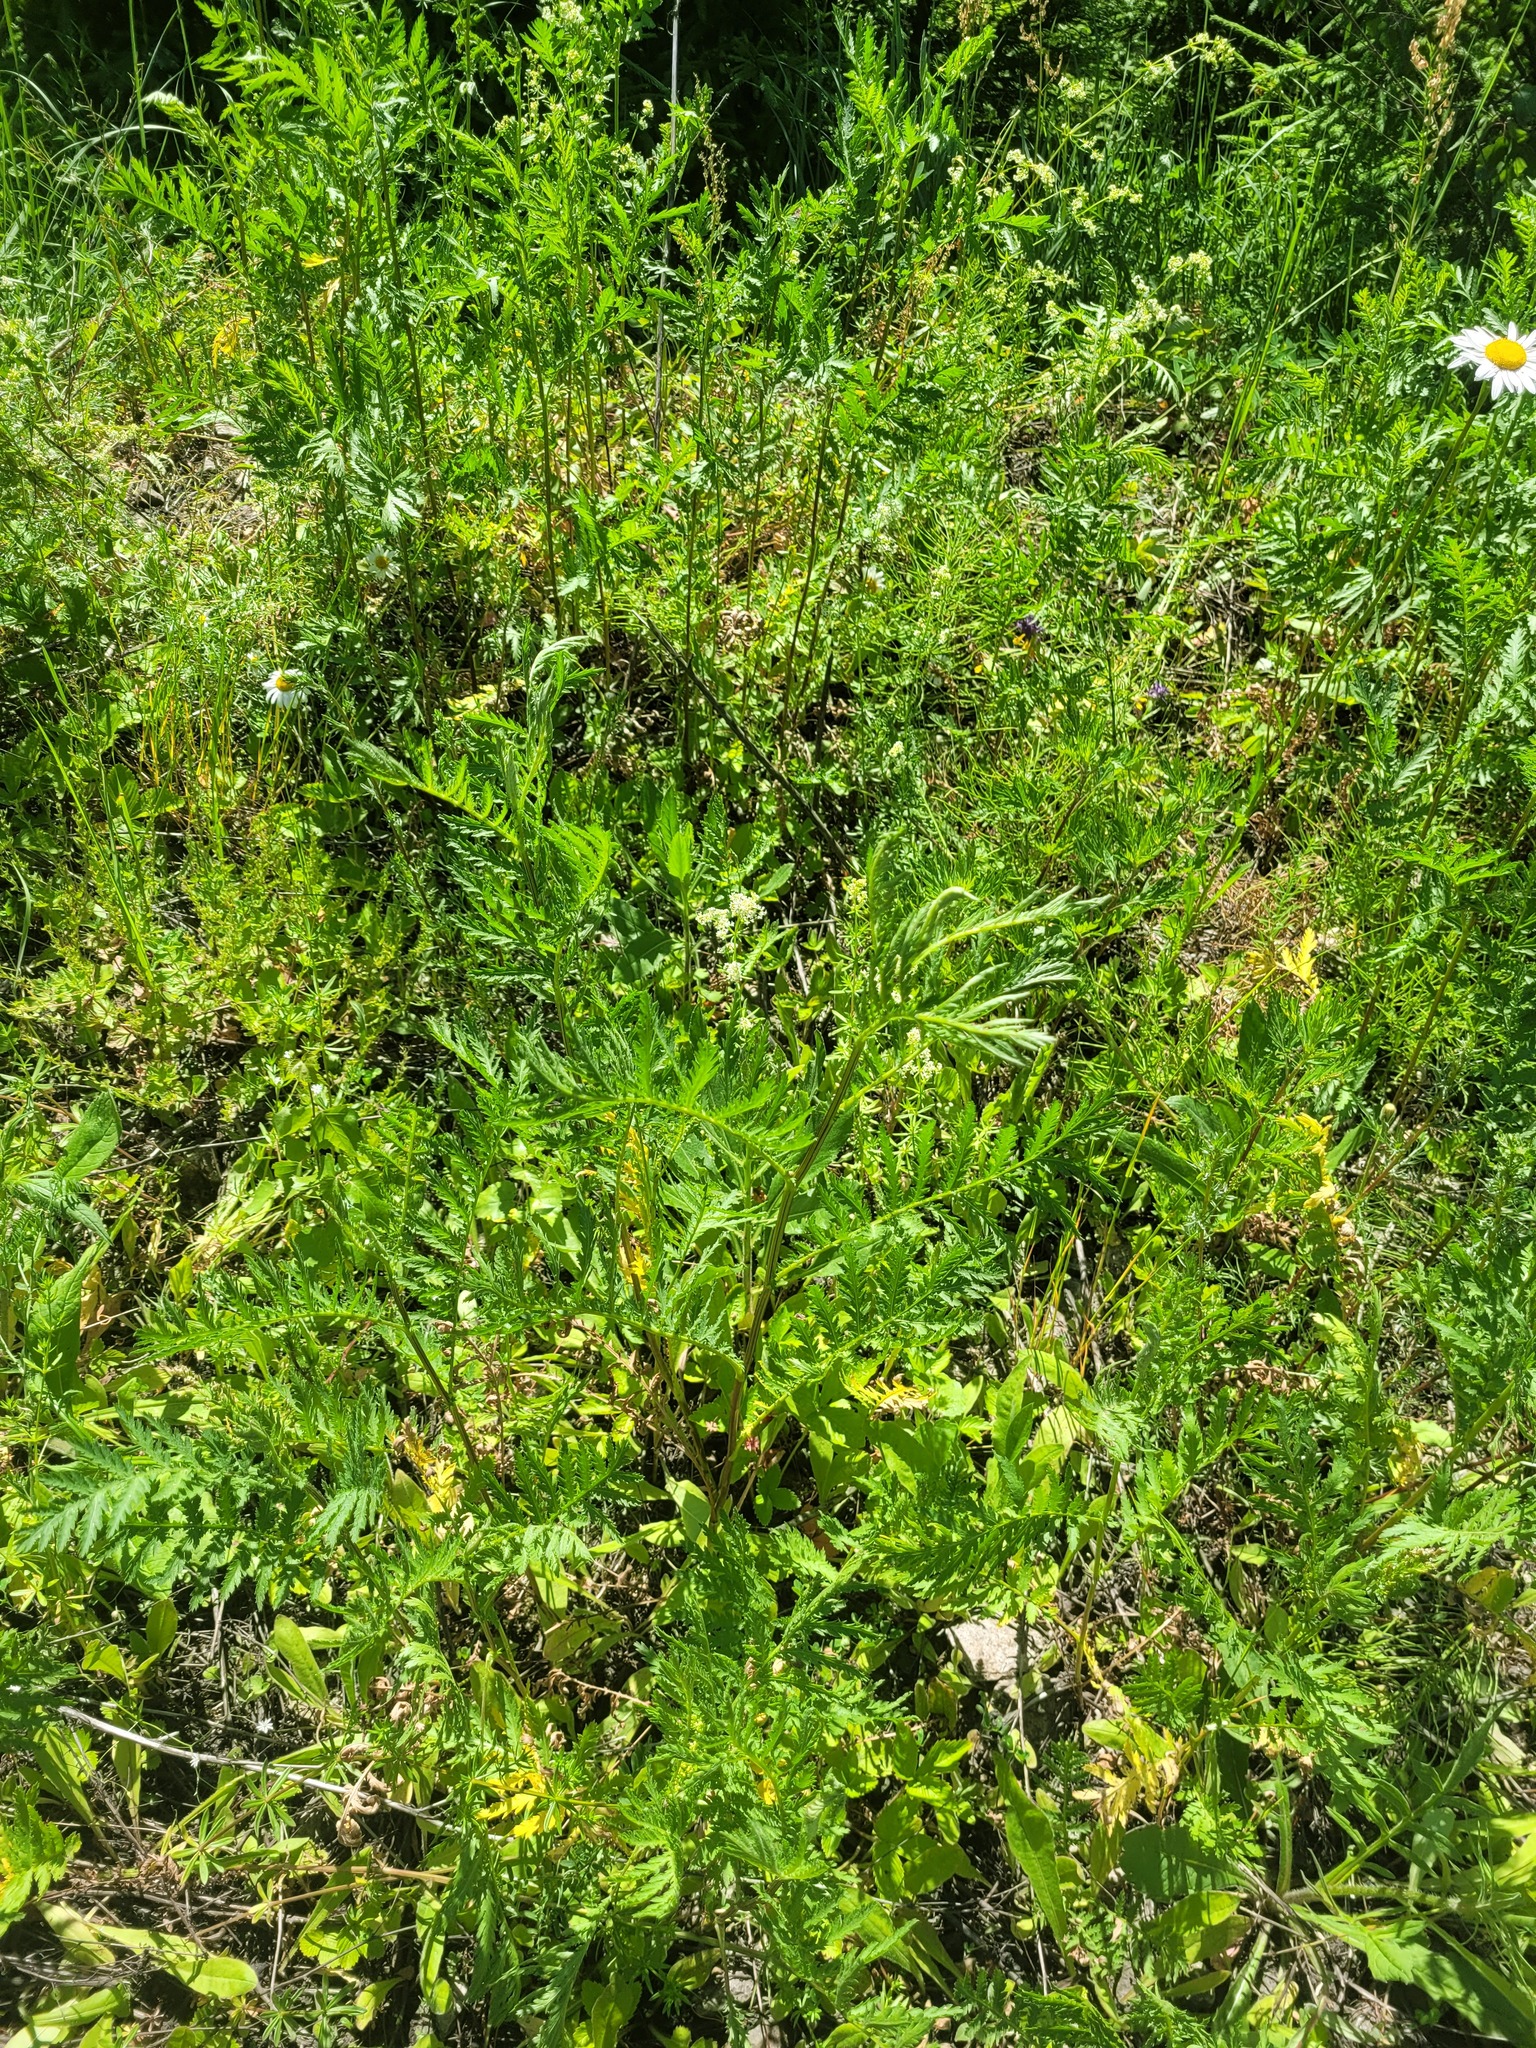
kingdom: Plantae
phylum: Tracheophyta
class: Magnoliopsida
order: Asterales
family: Asteraceae
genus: Tanacetum
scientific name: Tanacetum vulgare
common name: Common tansy
